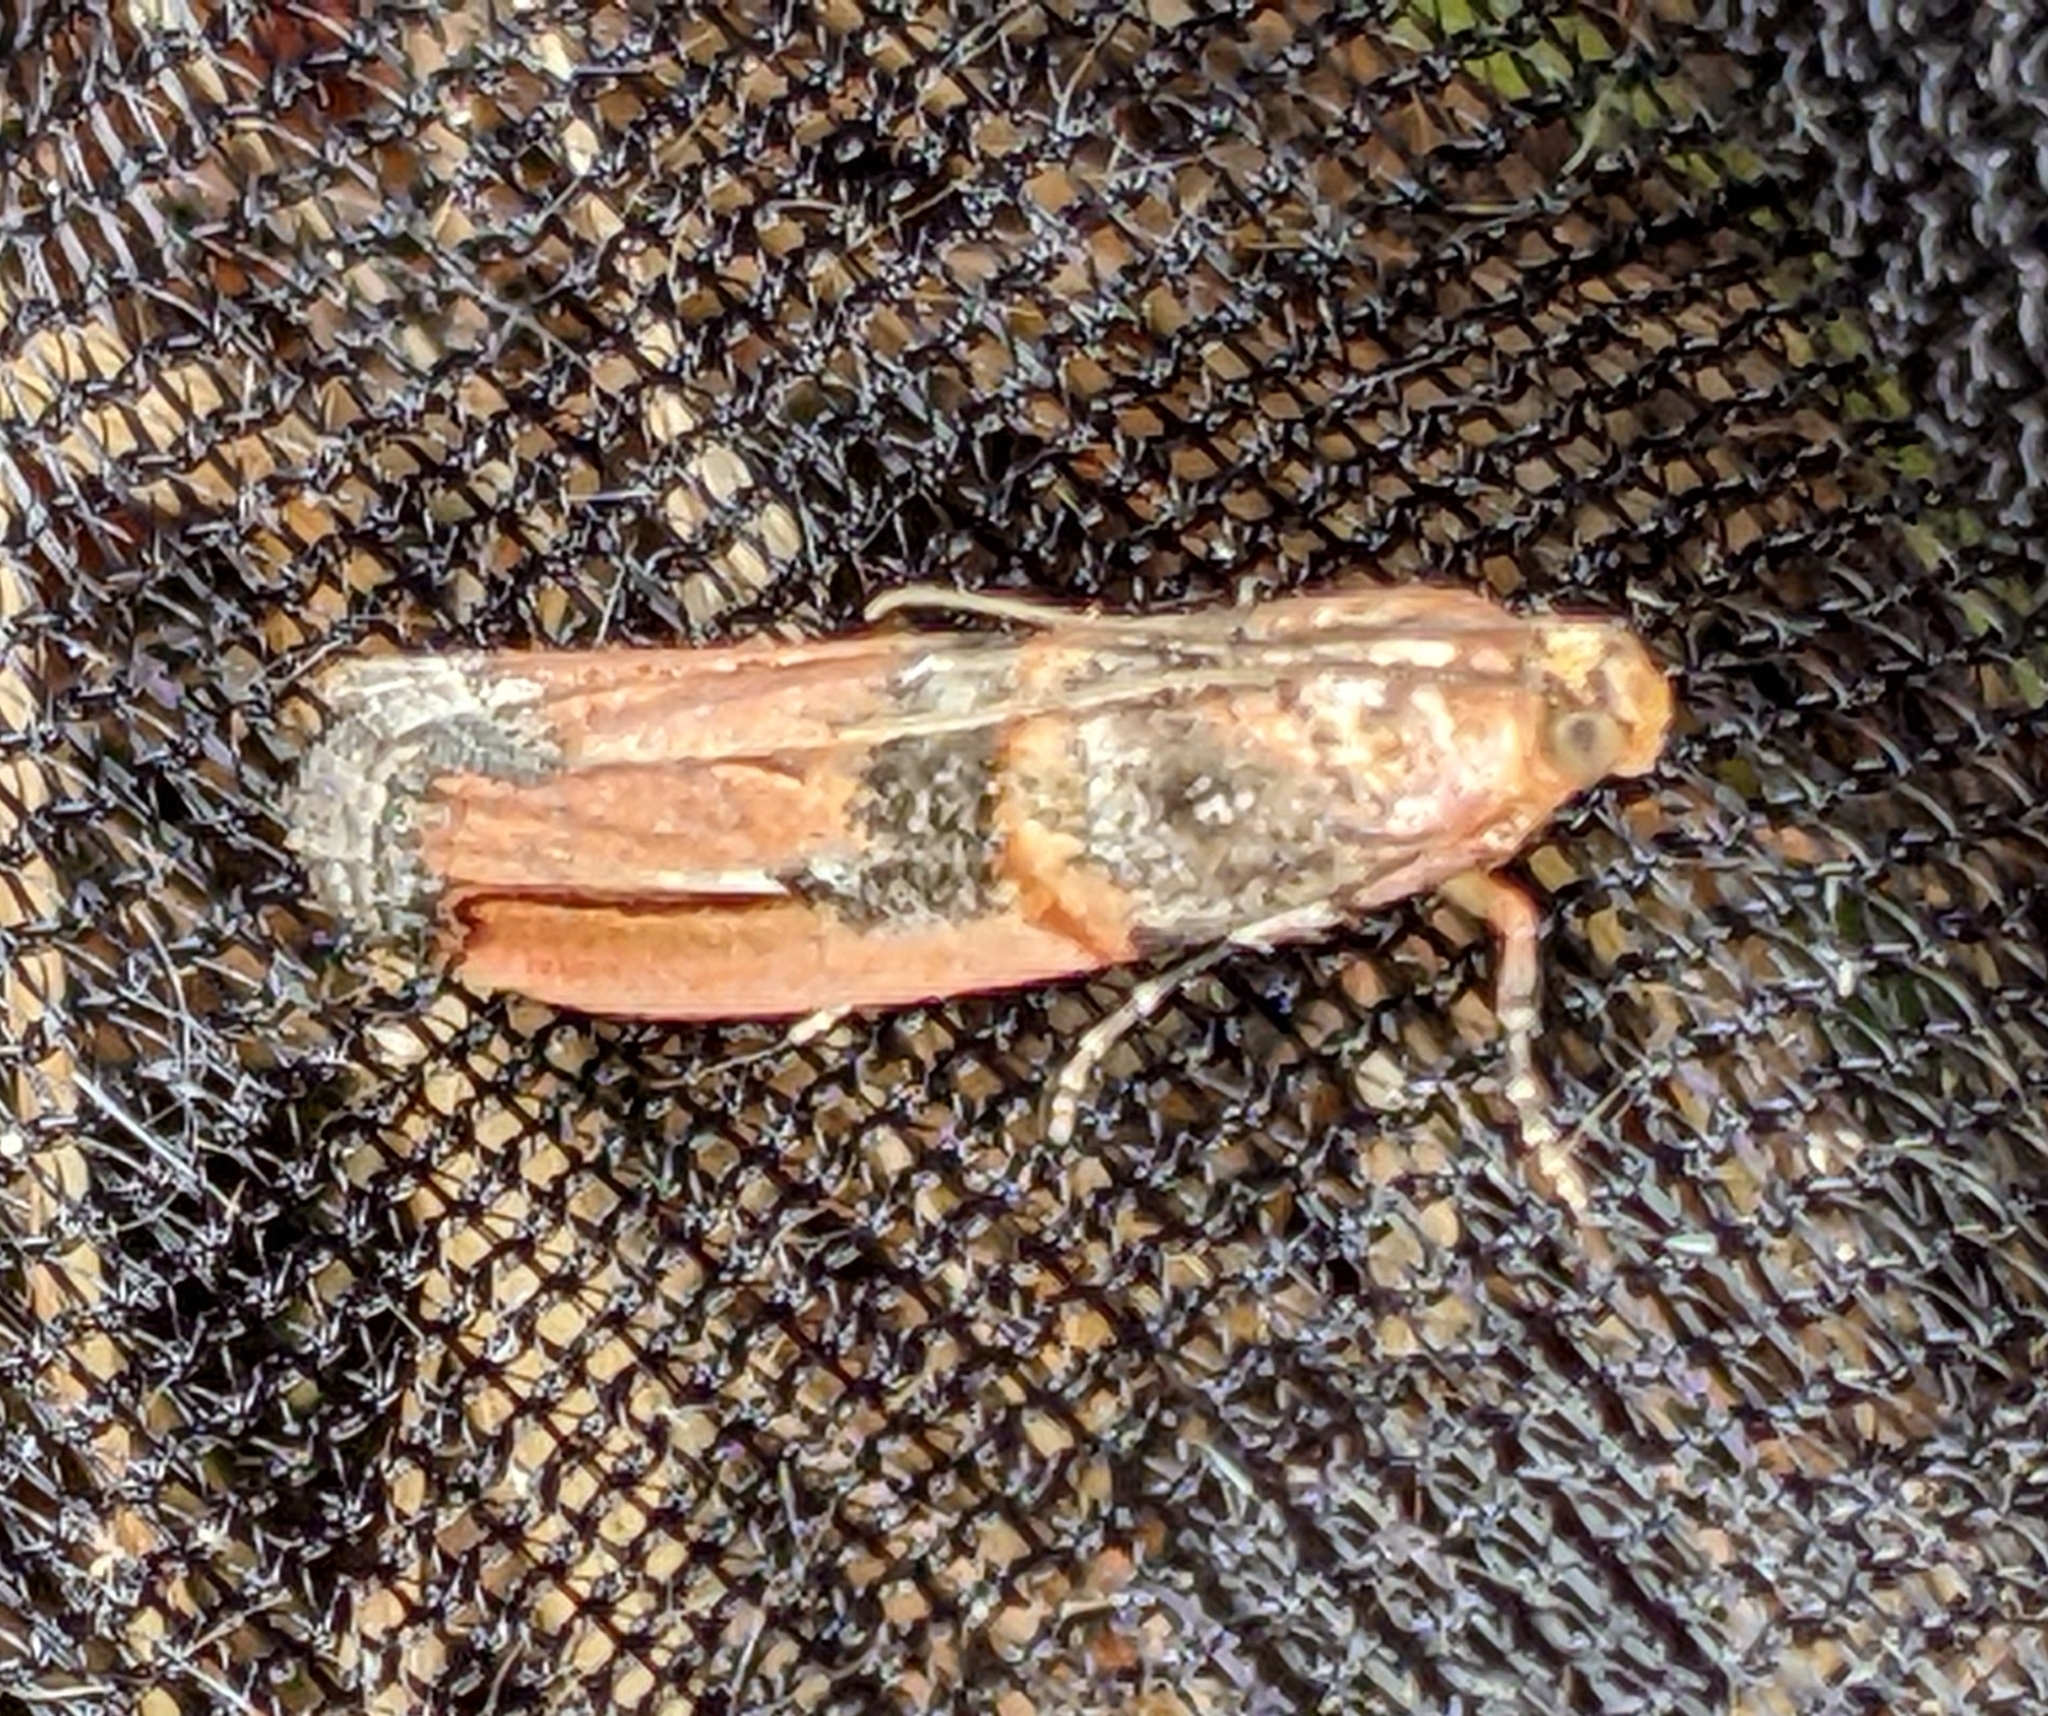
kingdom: Animalia
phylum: Arthropoda
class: Insecta
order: Lepidoptera
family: Pyralidae
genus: Dasypyga
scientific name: Dasypyga alternosquamella
